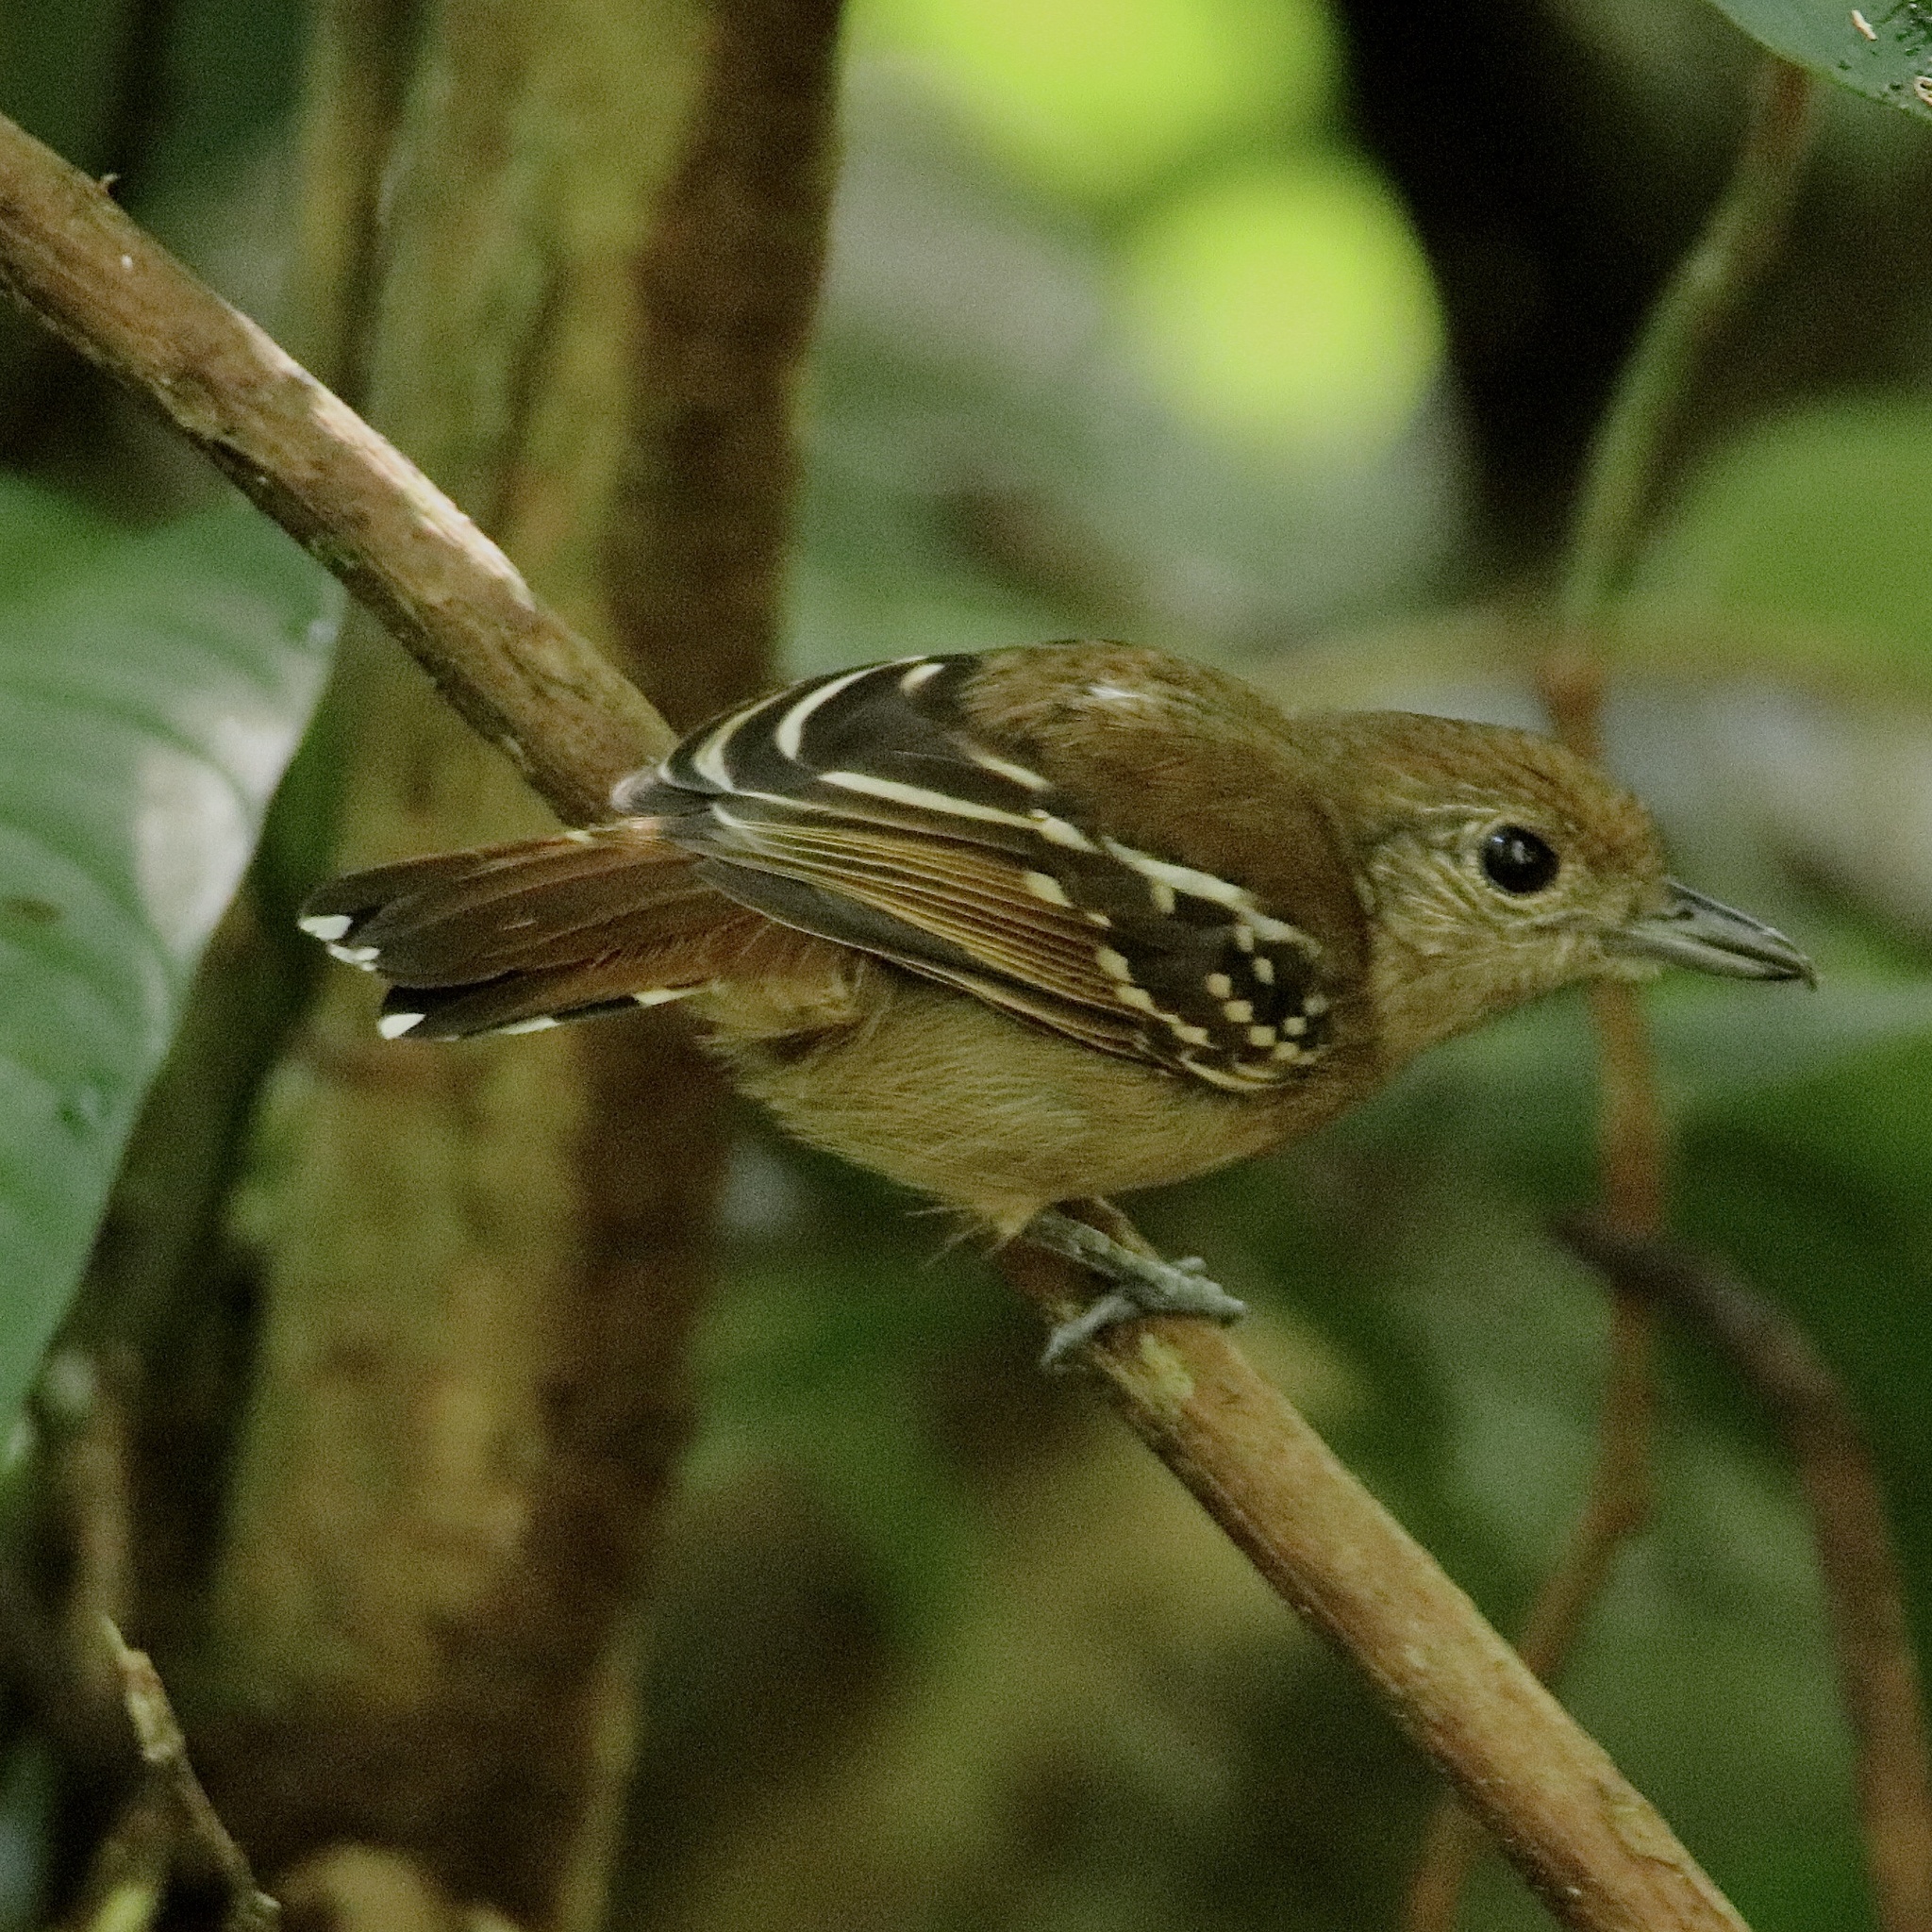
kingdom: Animalia
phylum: Chordata
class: Aves
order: Passeriformes
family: Thamnophilidae
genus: Thamnophilus
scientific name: Thamnophilus atrinucha
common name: Black-crowned antshrike
